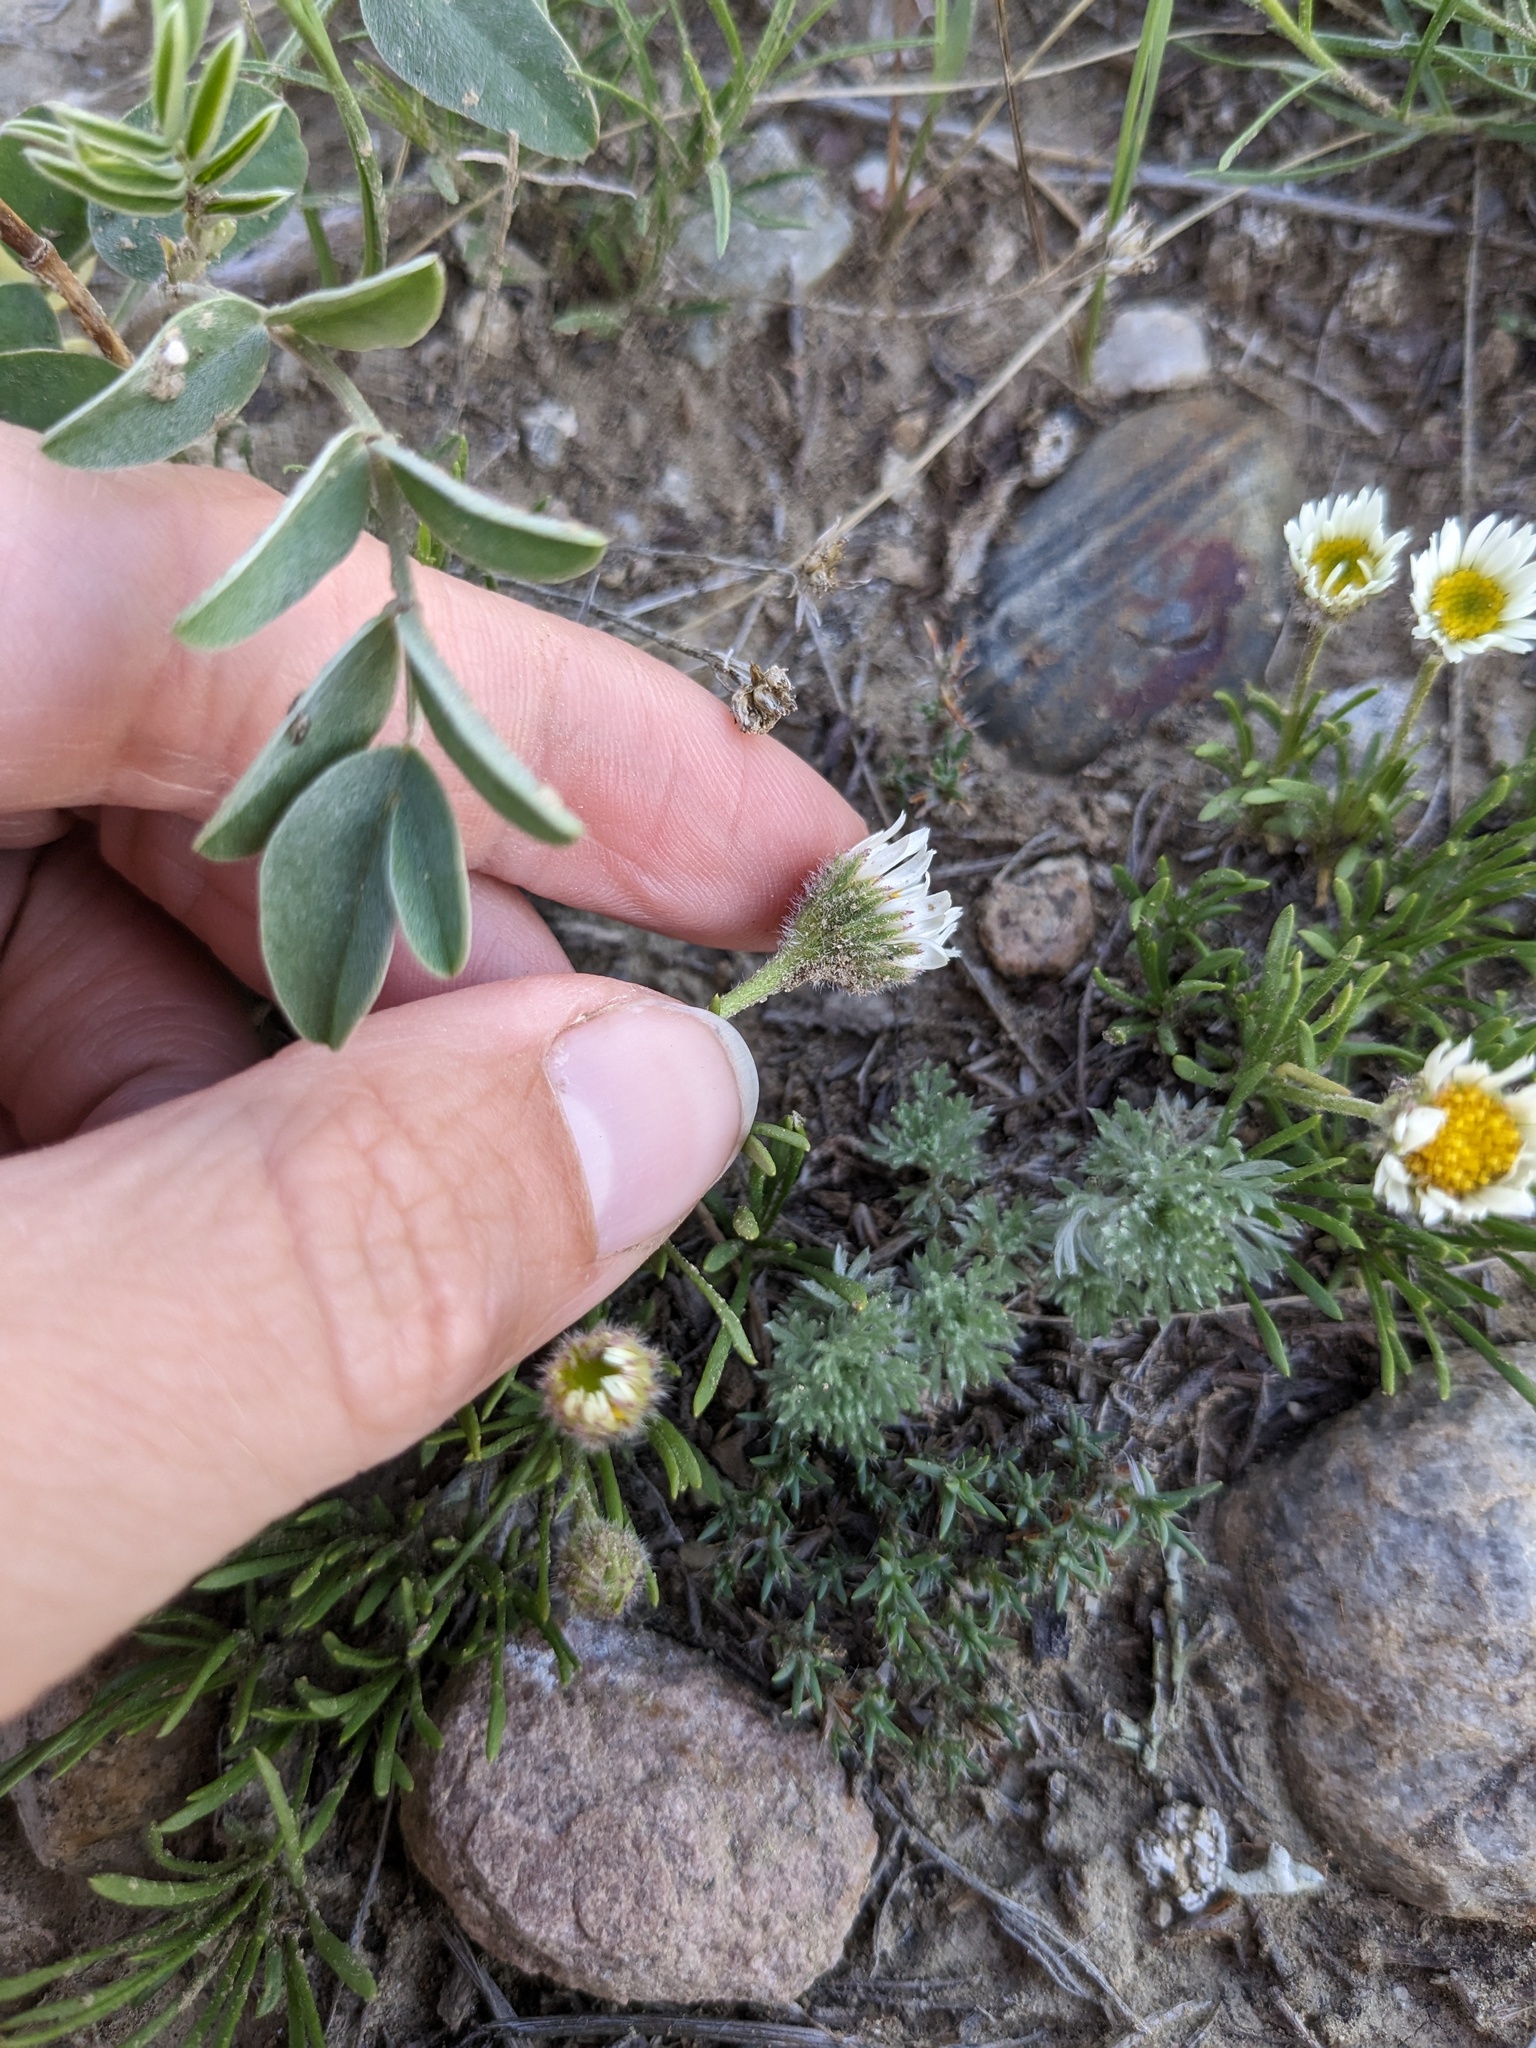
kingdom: Plantae
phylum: Tracheophyta
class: Magnoliopsida
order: Asterales
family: Asteraceae
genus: Erigeron
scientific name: Erigeron radicatus
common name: Dwarf fleabane
